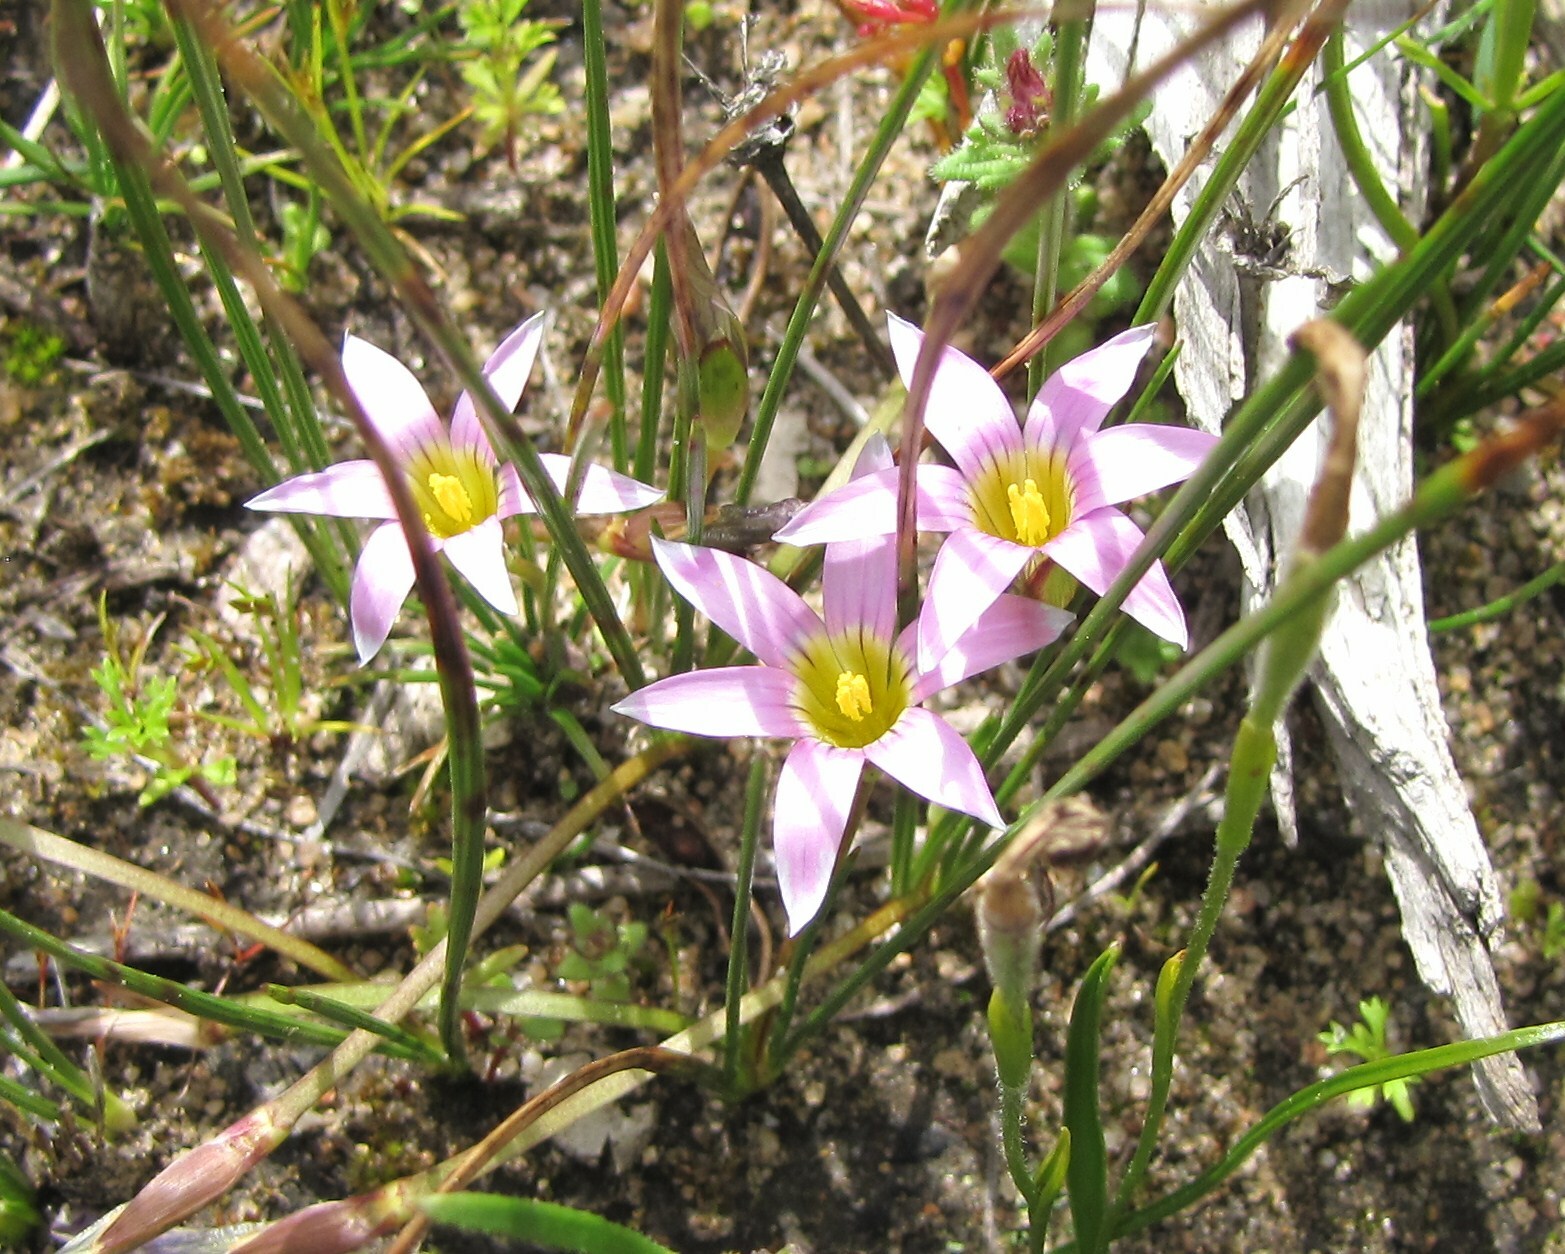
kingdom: Plantae
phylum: Tracheophyta
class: Liliopsida
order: Asparagales
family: Iridaceae
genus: Romulea
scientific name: Romulea rosea
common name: Oniongrass
